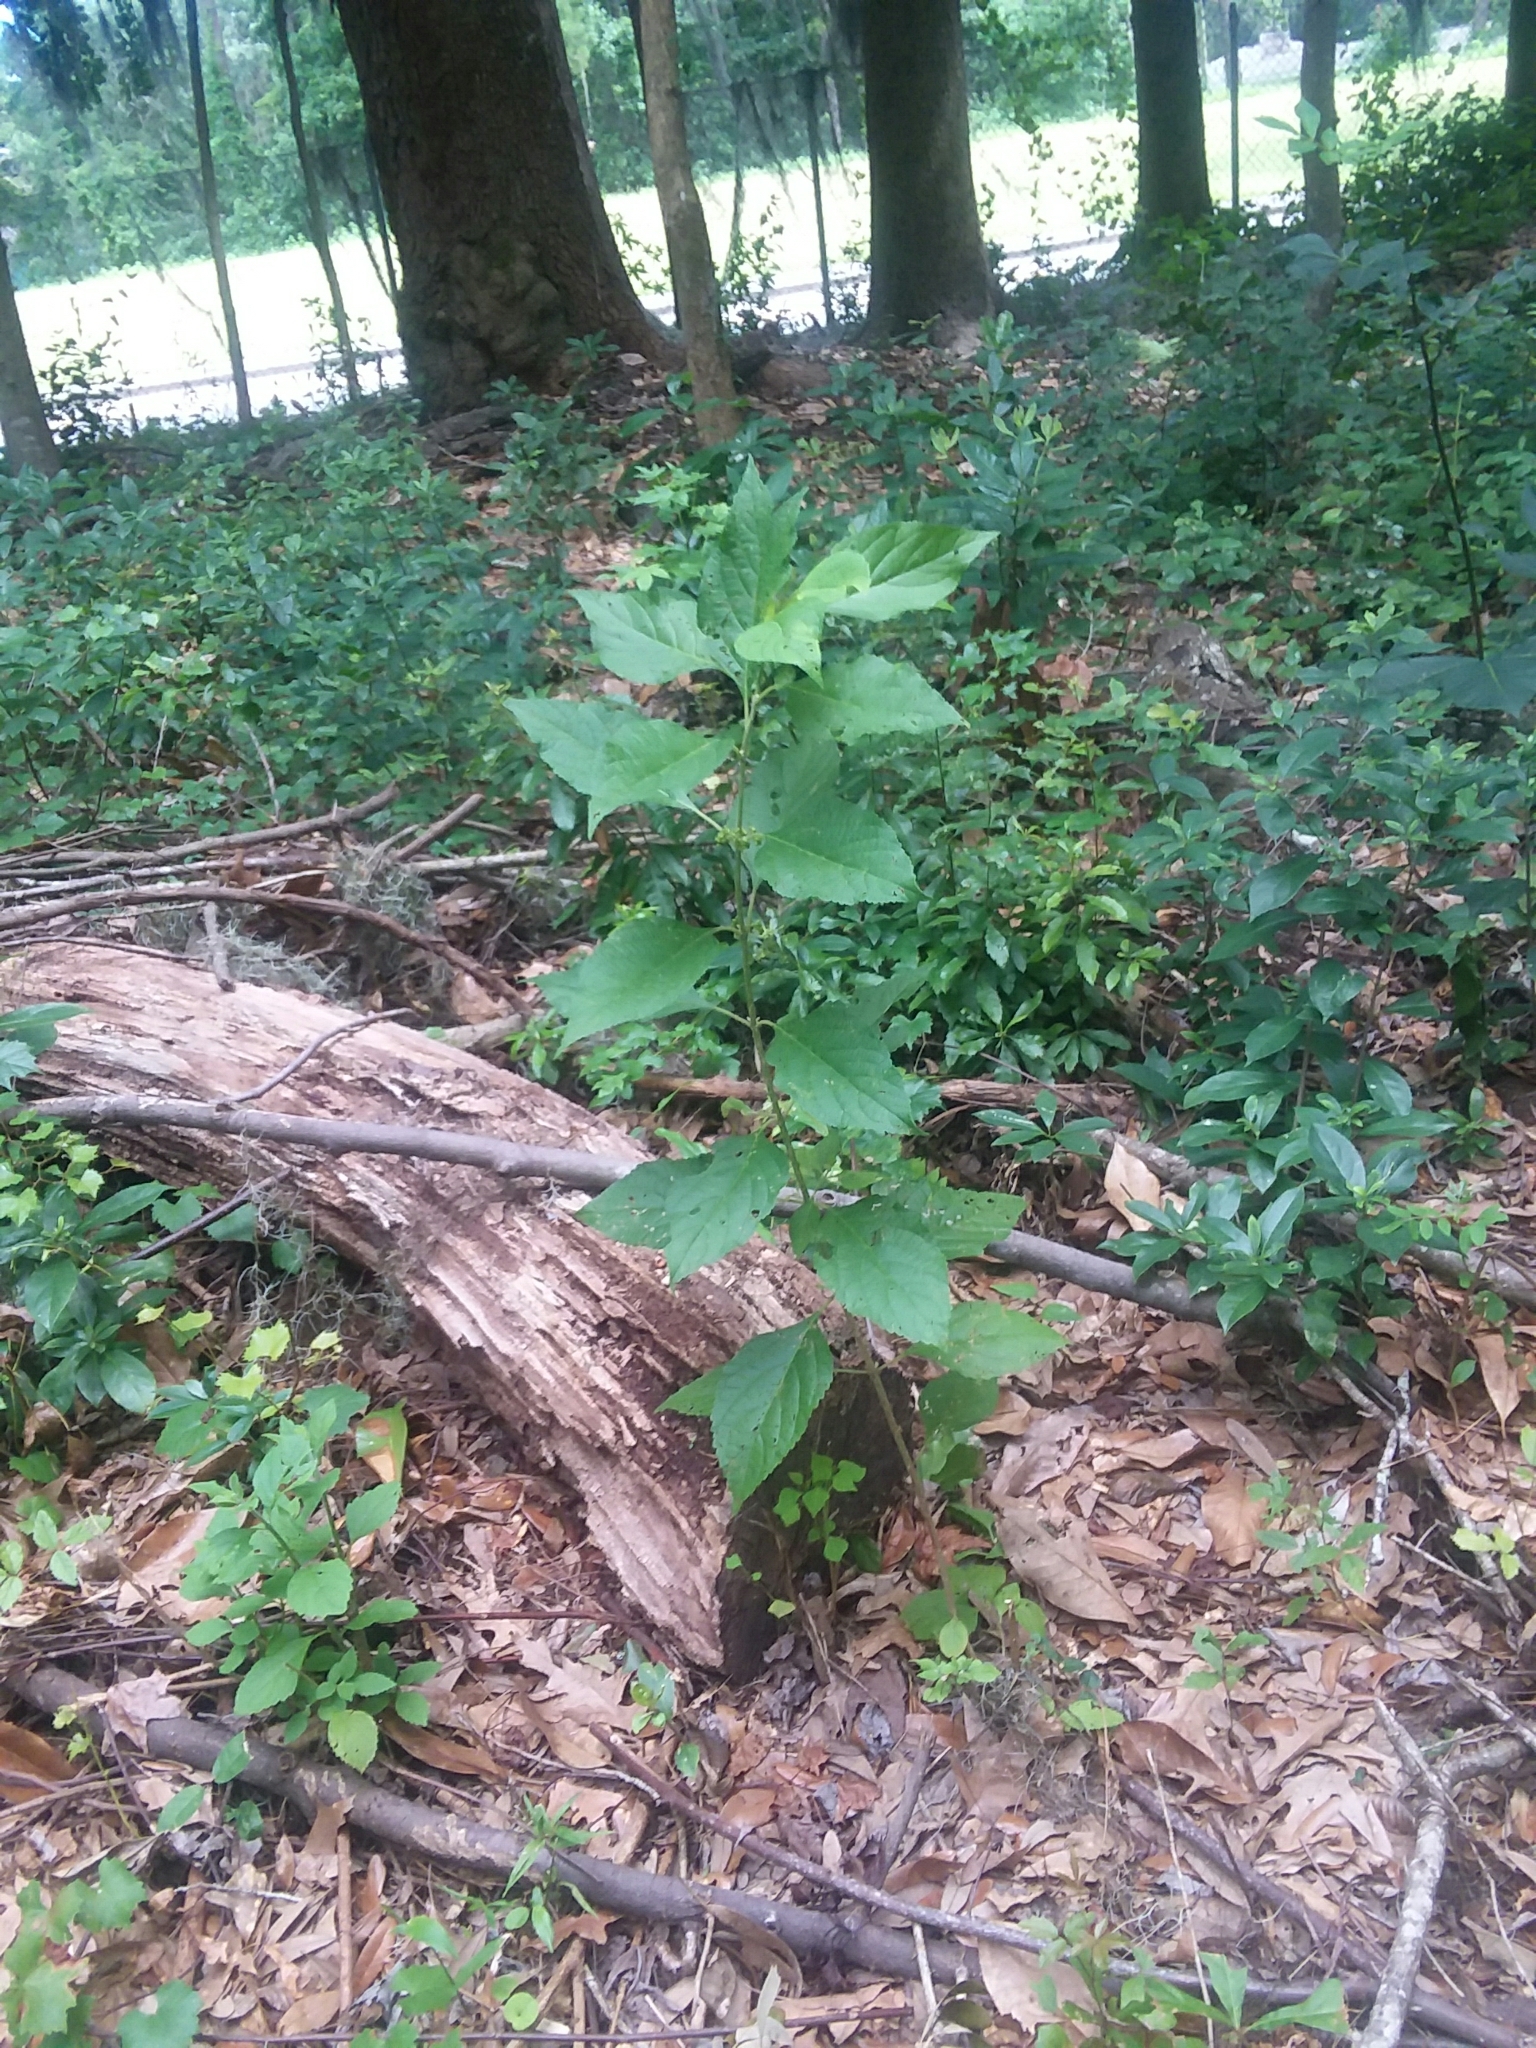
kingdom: Plantae
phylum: Tracheophyta
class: Magnoliopsida
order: Lamiales
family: Lamiaceae
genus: Callicarpa
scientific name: Callicarpa americana
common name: American beautyberry
